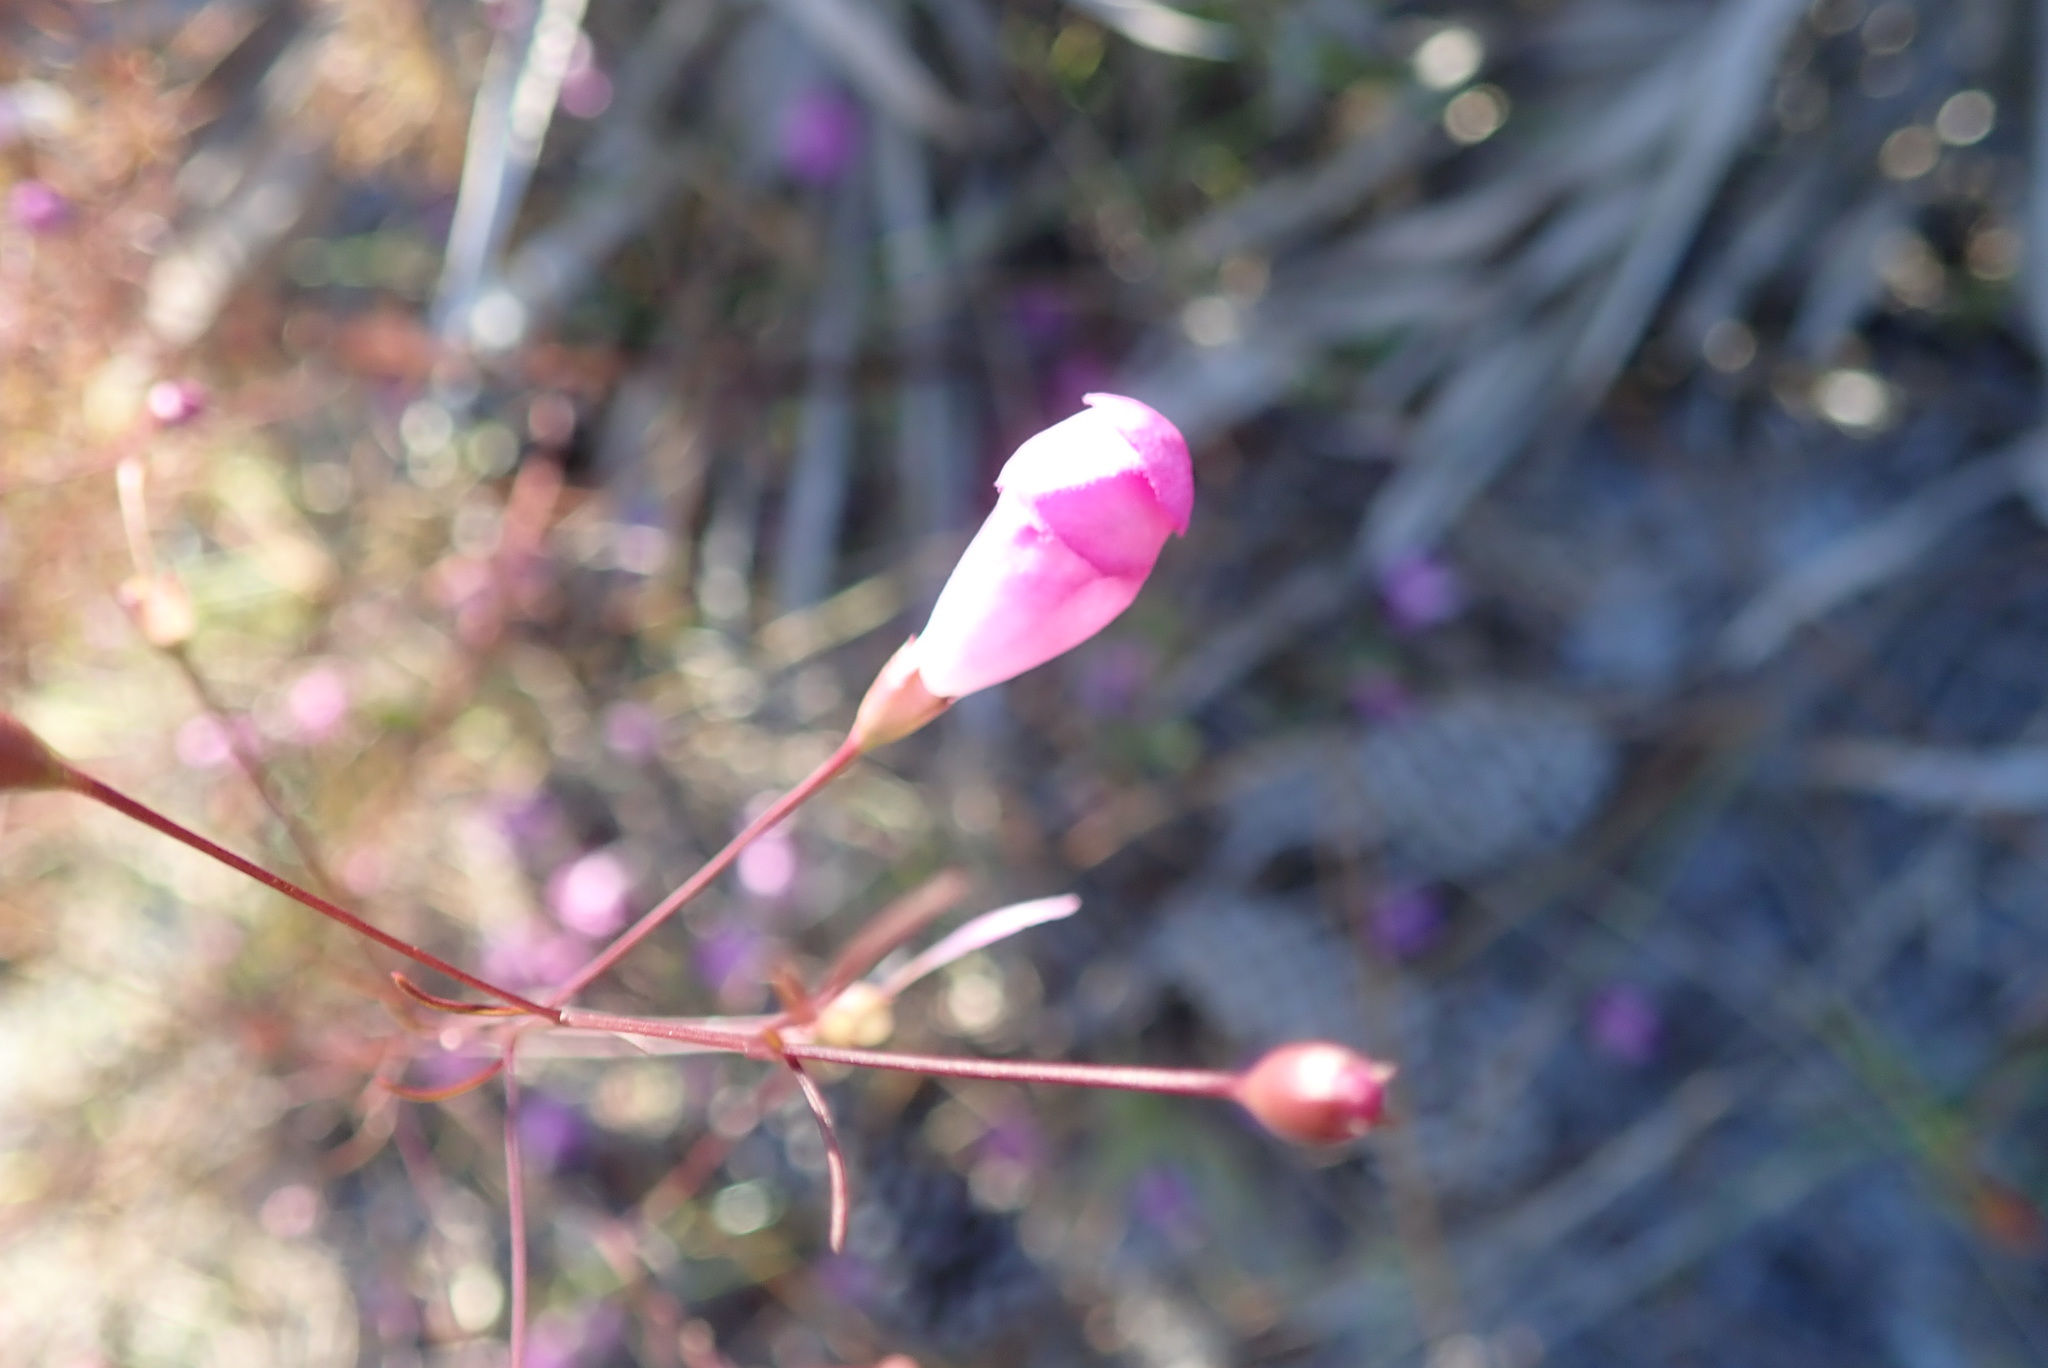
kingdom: Plantae
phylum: Tracheophyta
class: Magnoliopsida
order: Lamiales
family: Orobanchaceae
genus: Agalinis
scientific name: Agalinis filifolia
